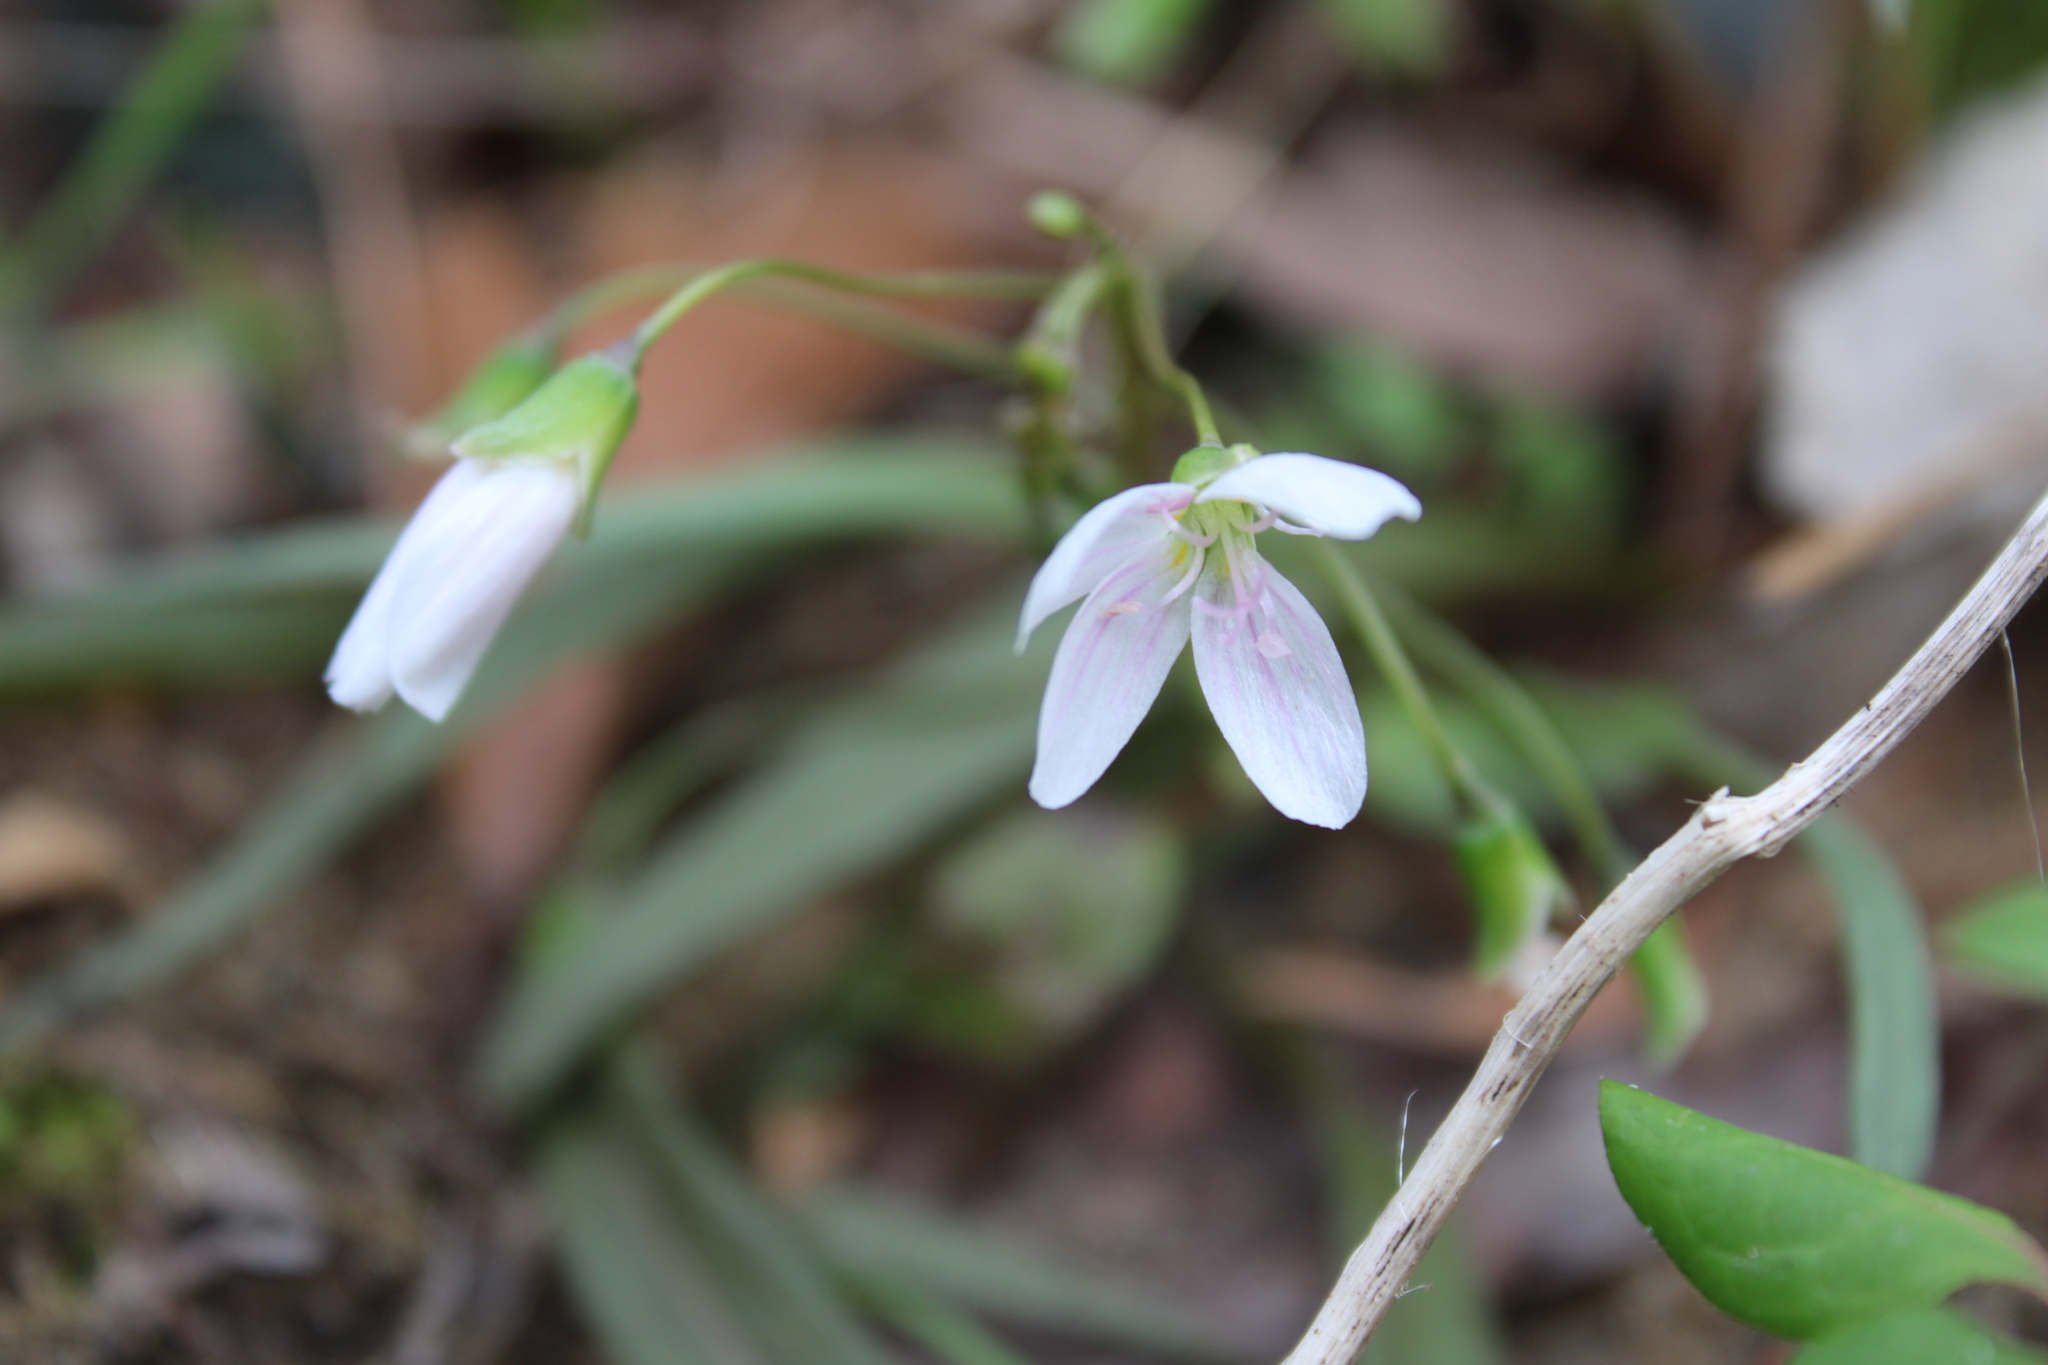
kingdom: Plantae
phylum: Tracheophyta
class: Magnoliopsida
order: Caryophyllales
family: Montiaceae
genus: Claytonia
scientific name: Claytonia virginica
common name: Virginia springbeauty
